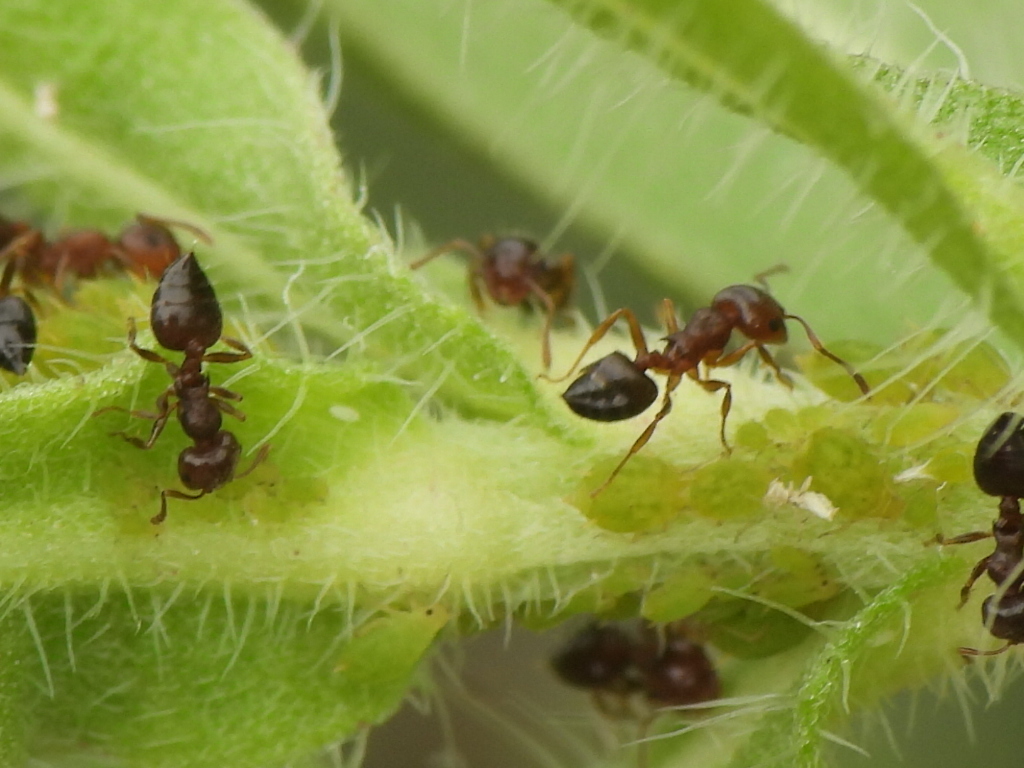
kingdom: Animalia
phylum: Arthropoda
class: Insecta
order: Hymenoptera
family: Formicidae
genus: Crematogaster
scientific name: Crematogaster laeviuscula
